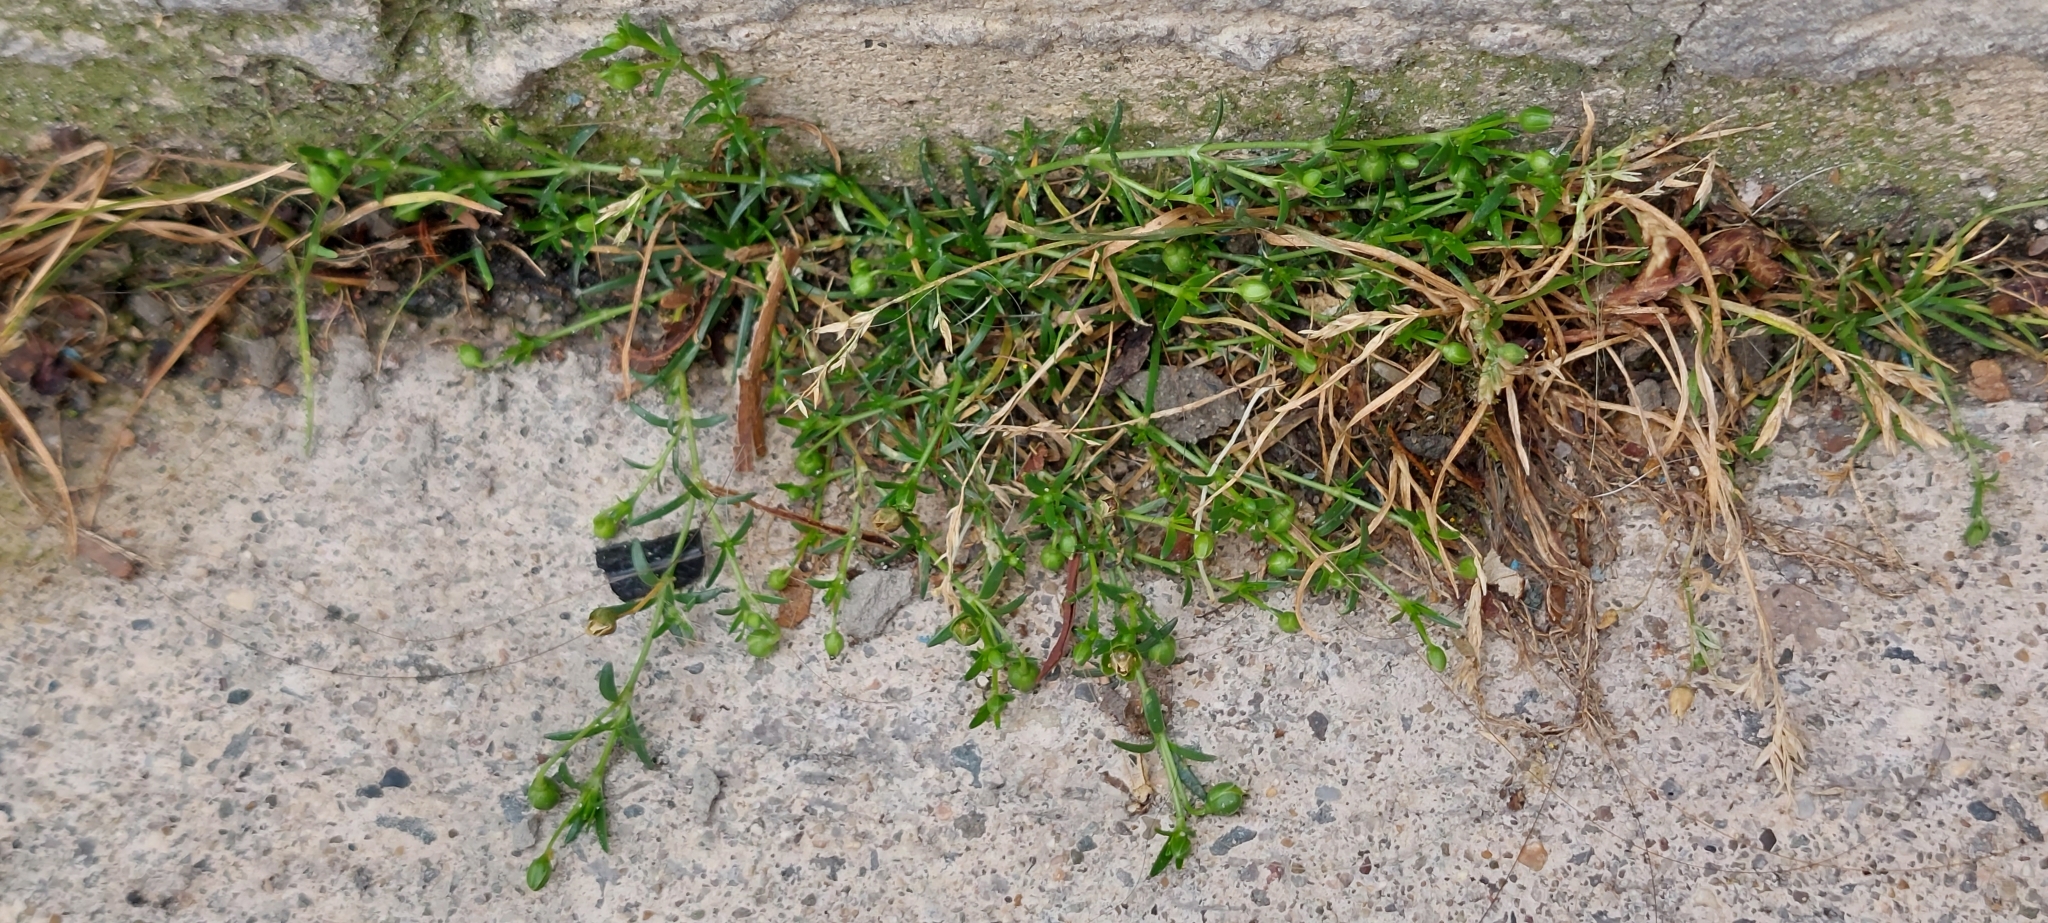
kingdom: Plantae
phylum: Tracheophyta
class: Magnoliopsida
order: Caryophyllales
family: Caryophyllaceae
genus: Sagina
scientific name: Sagina procumbens
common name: Procumbent pearlwort
